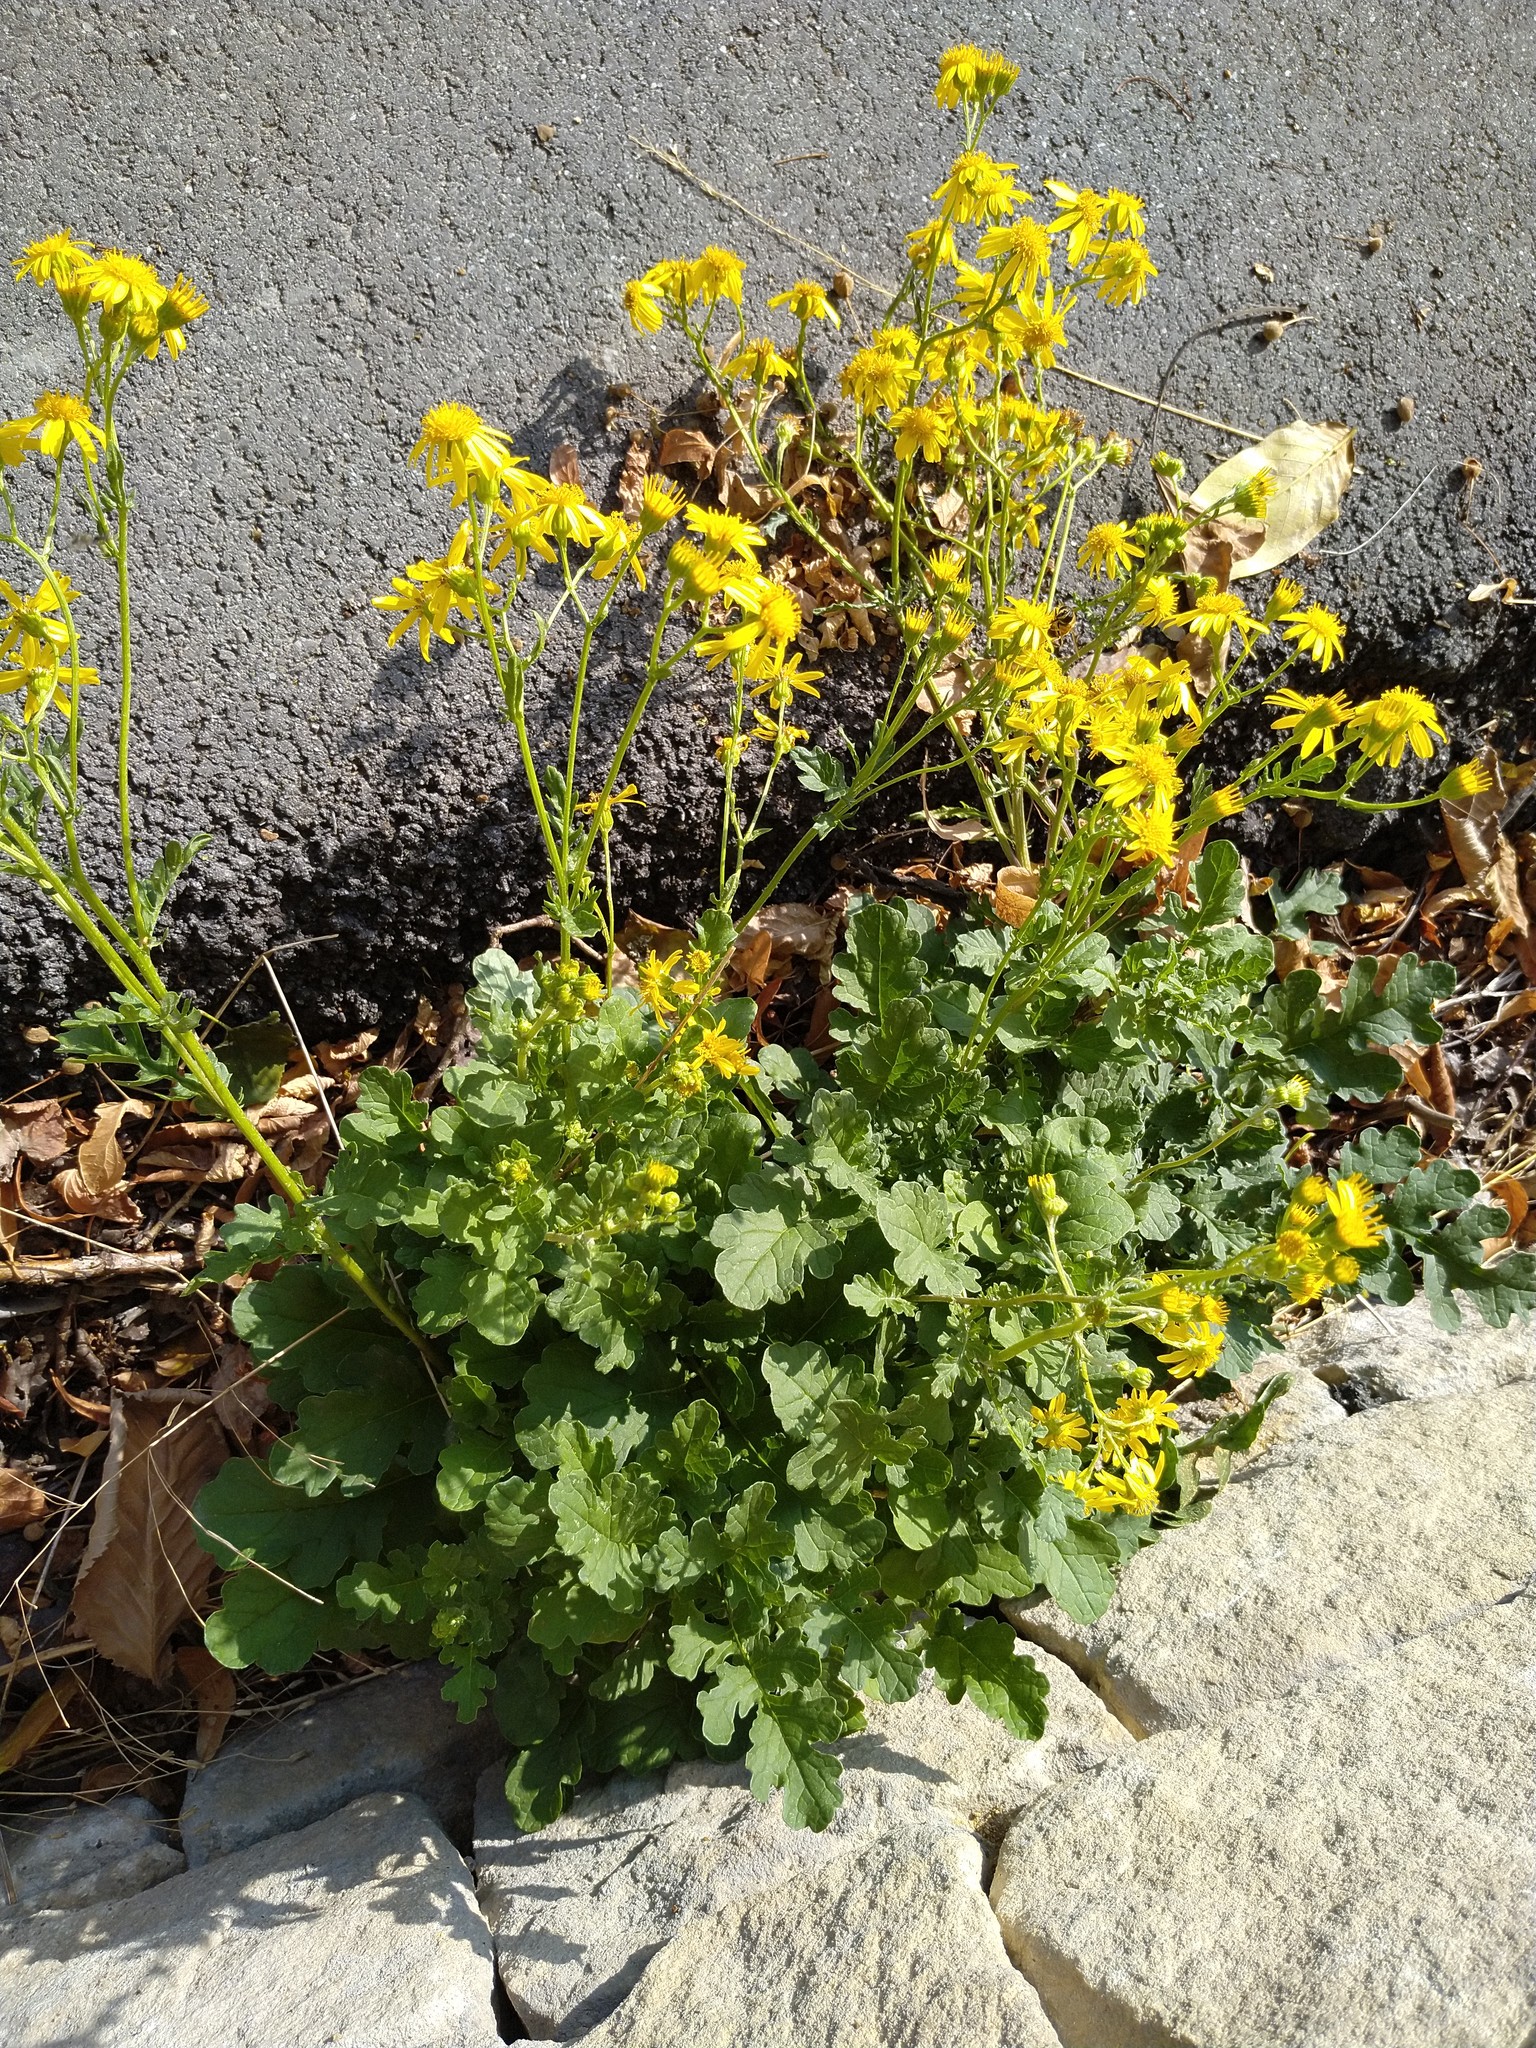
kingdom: Plantae
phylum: Tracheophyta
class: Magnoliopsida
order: Asterales
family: Asteraceae
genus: Jacobaea
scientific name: Jacobaea vulgaris
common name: Stinking willie
